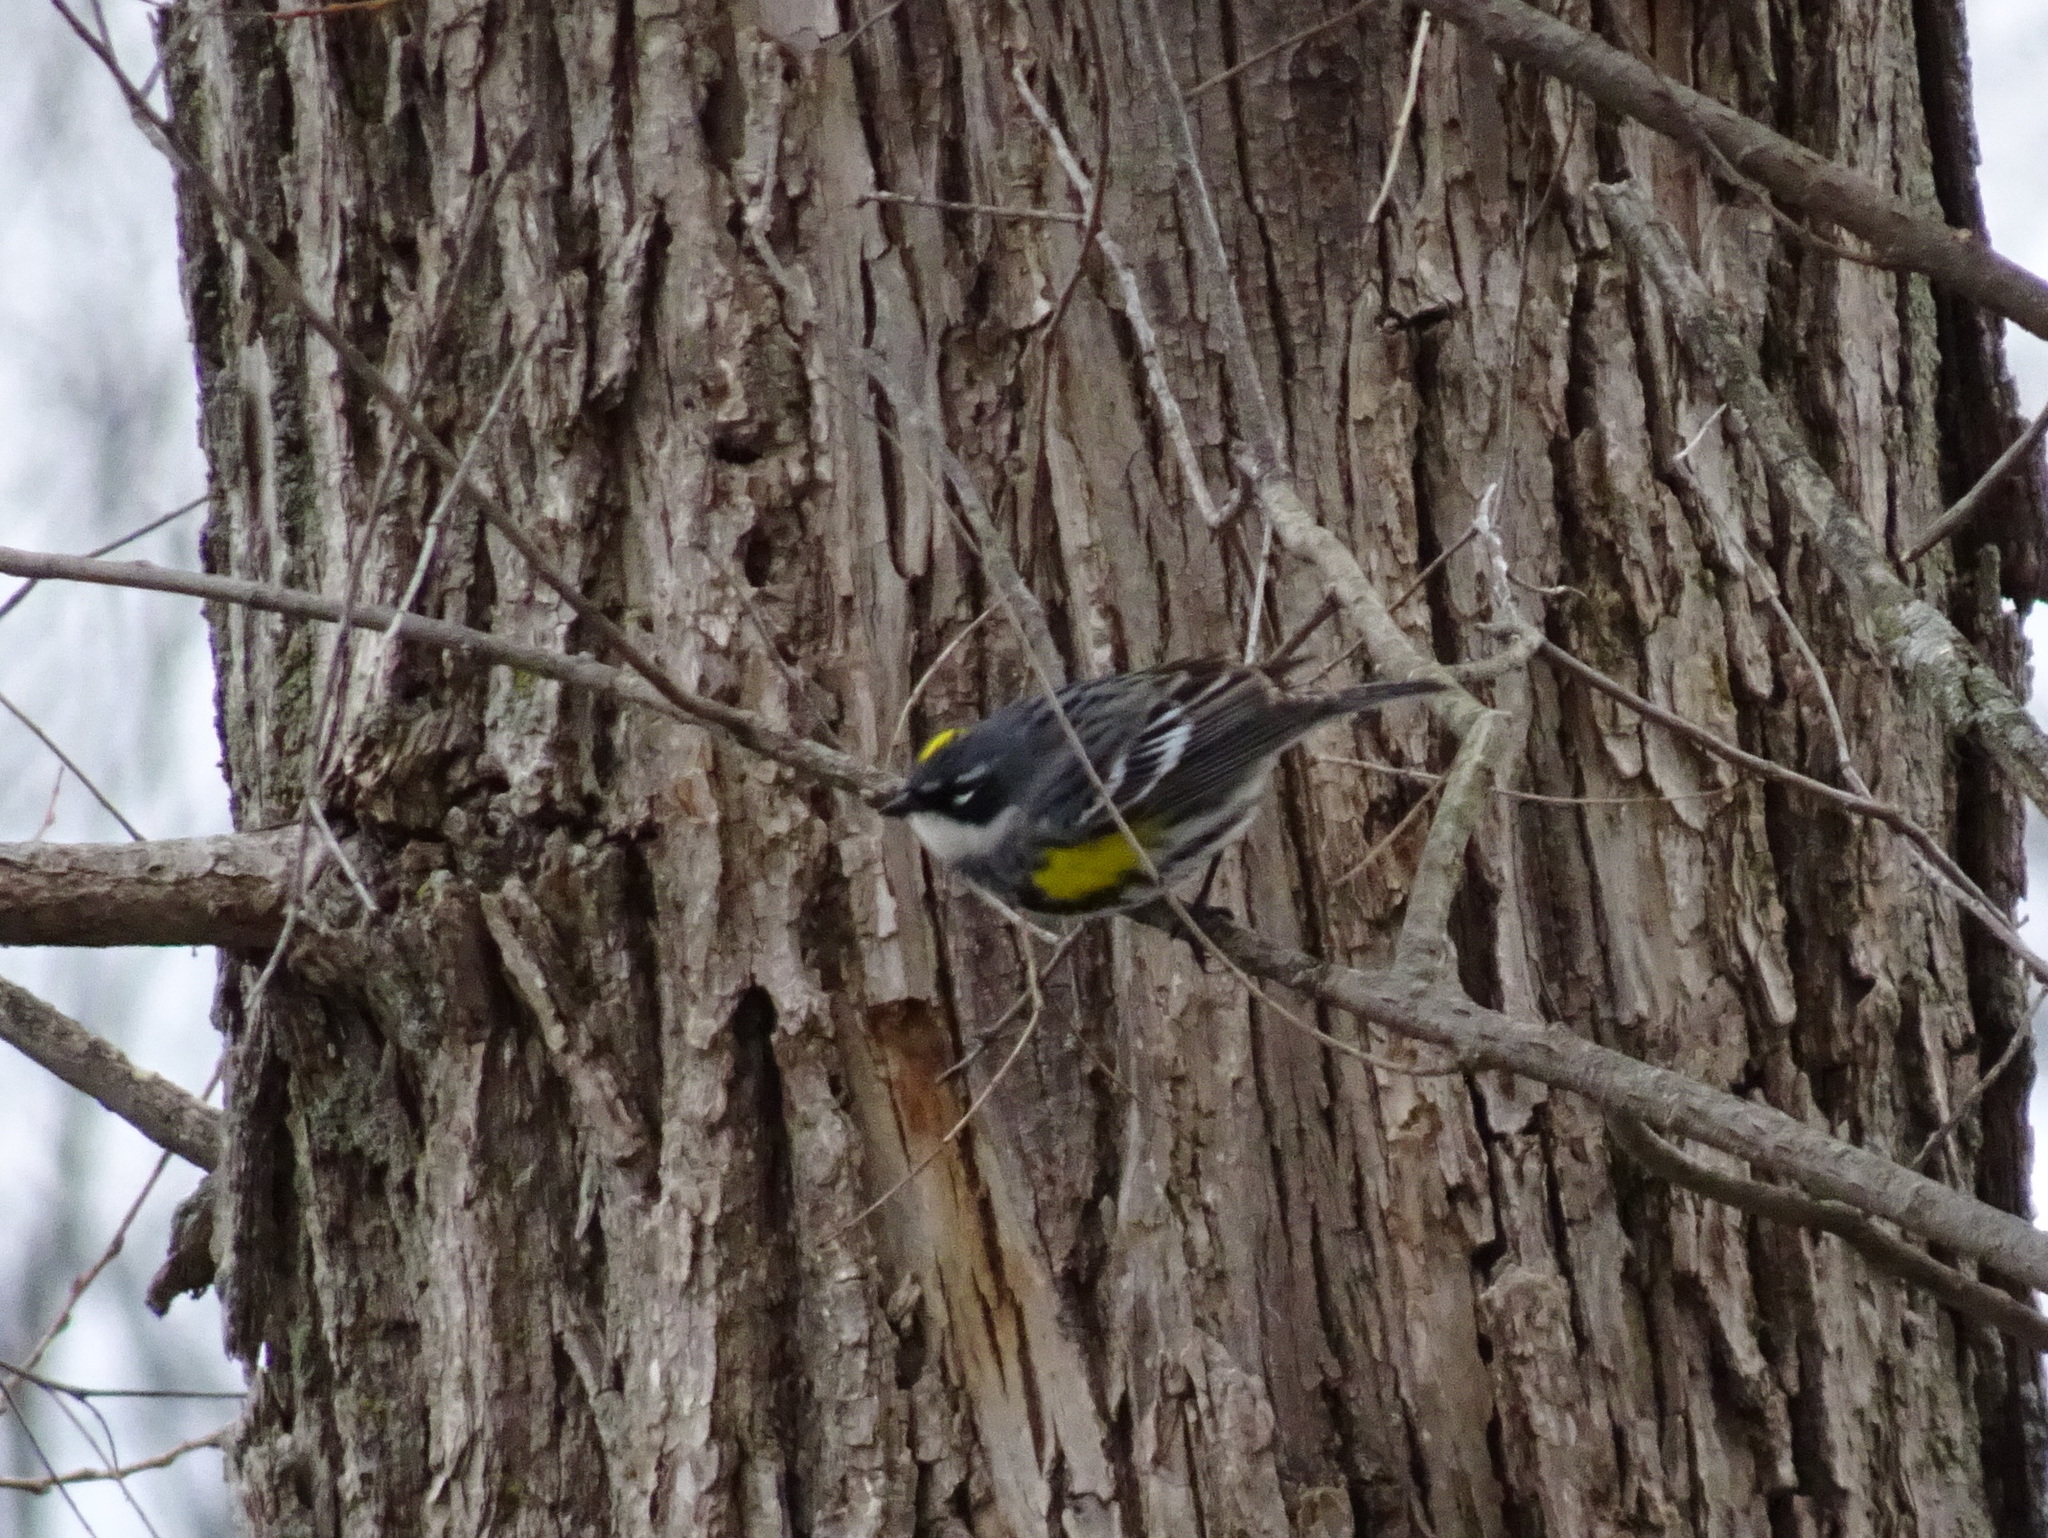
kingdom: Animalia
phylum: Chordata
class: Aves
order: Passeriformes
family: Parulidae
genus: Setophaga
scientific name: Setophaga coronata
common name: Myrtle warbler
